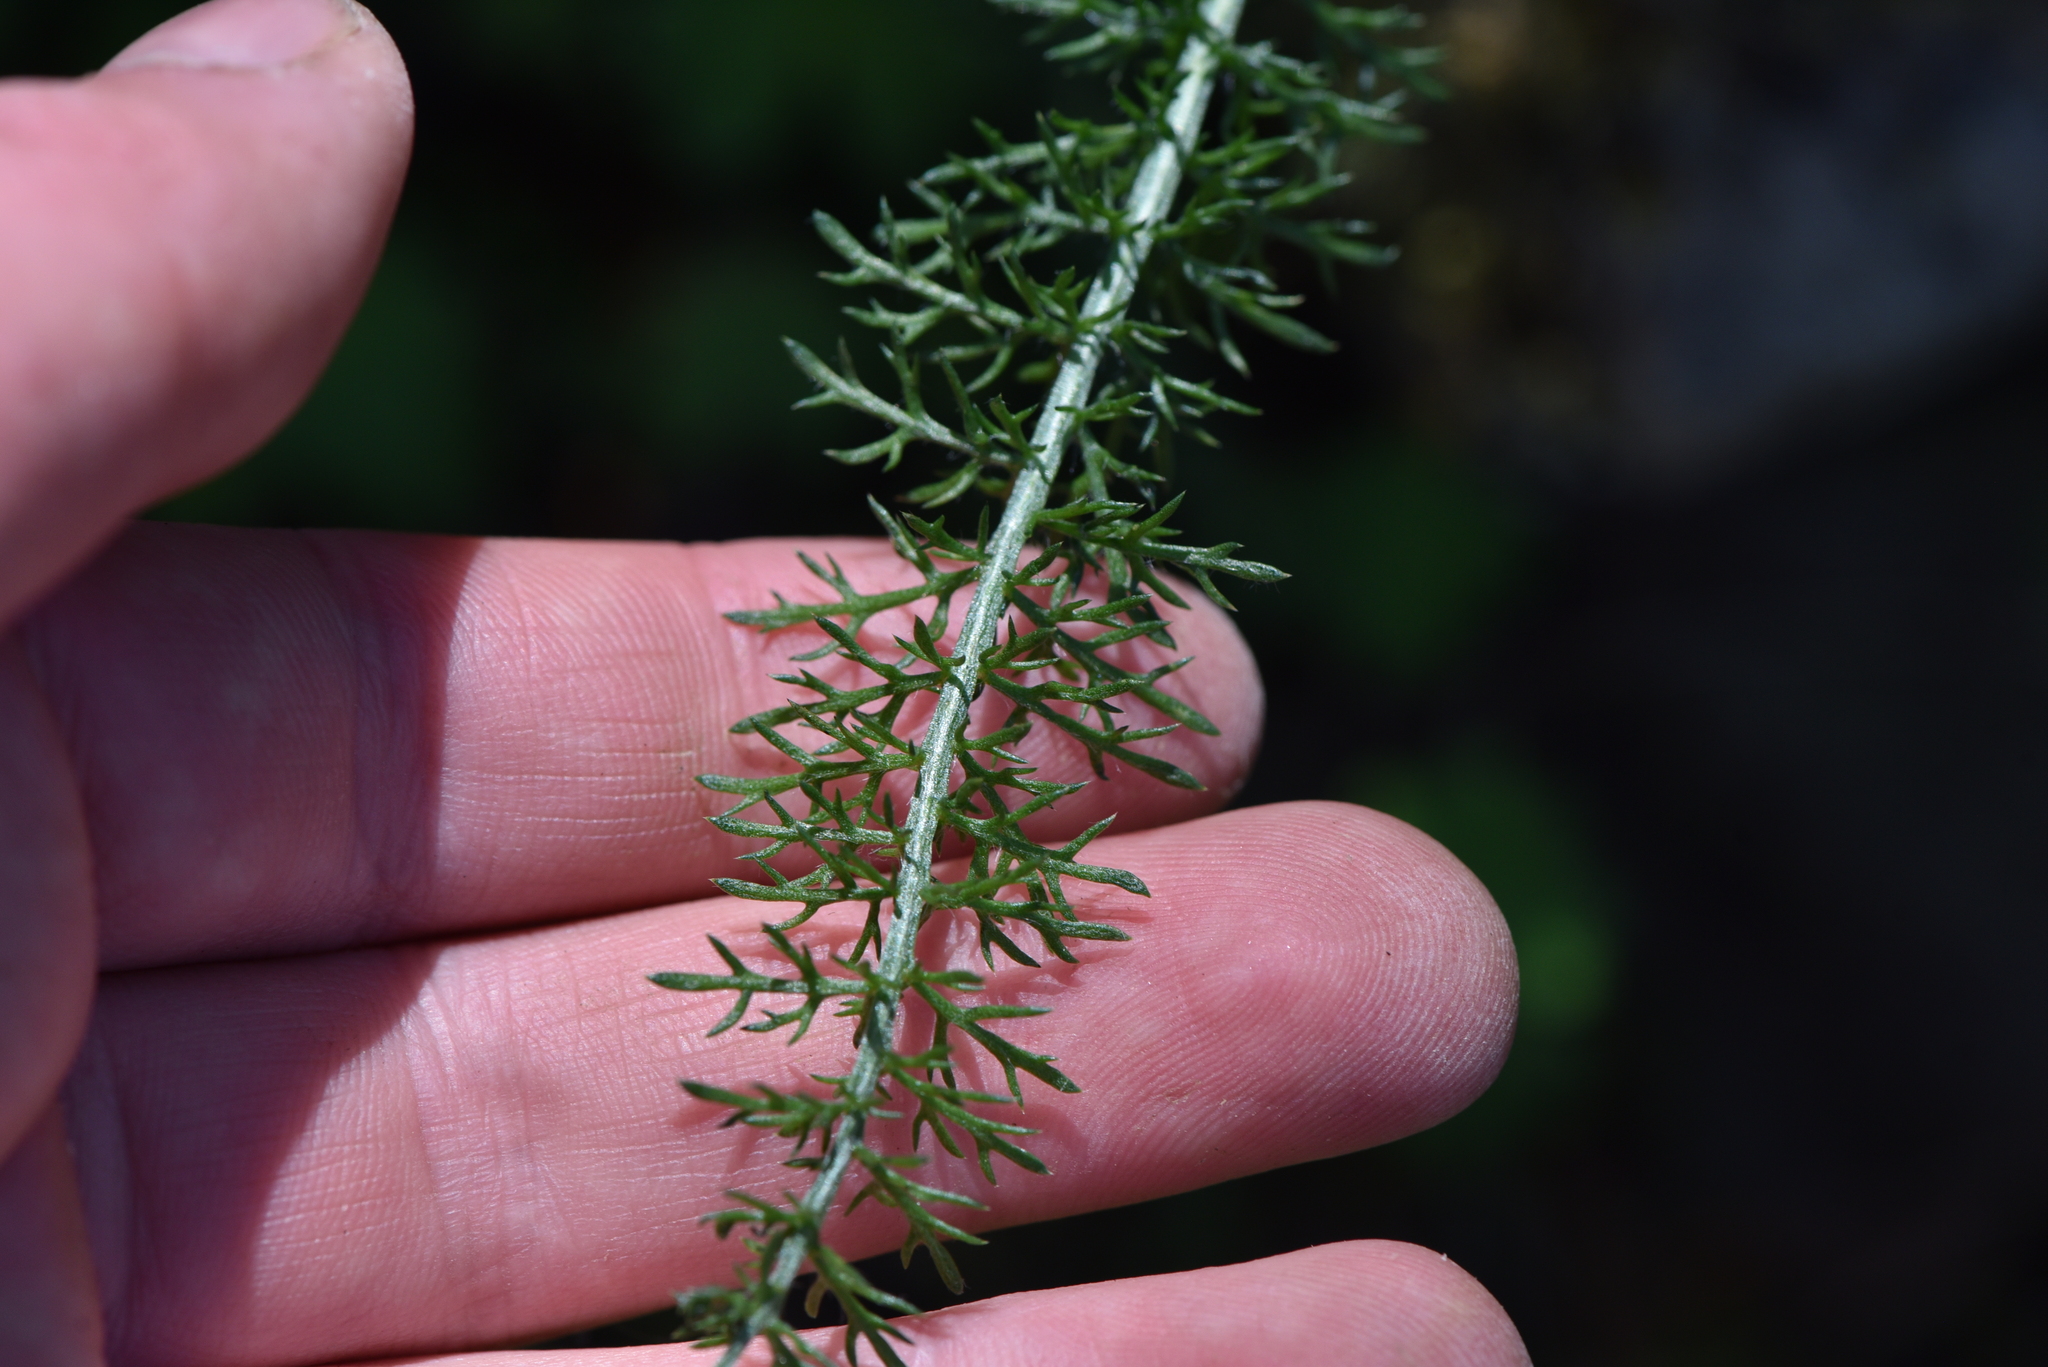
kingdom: Plantae
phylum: Tracheophyta
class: Magnoliopsida
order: Asterales
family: Asteraceae
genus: Achillea
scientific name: Achillea millefolium
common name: Yarrow
